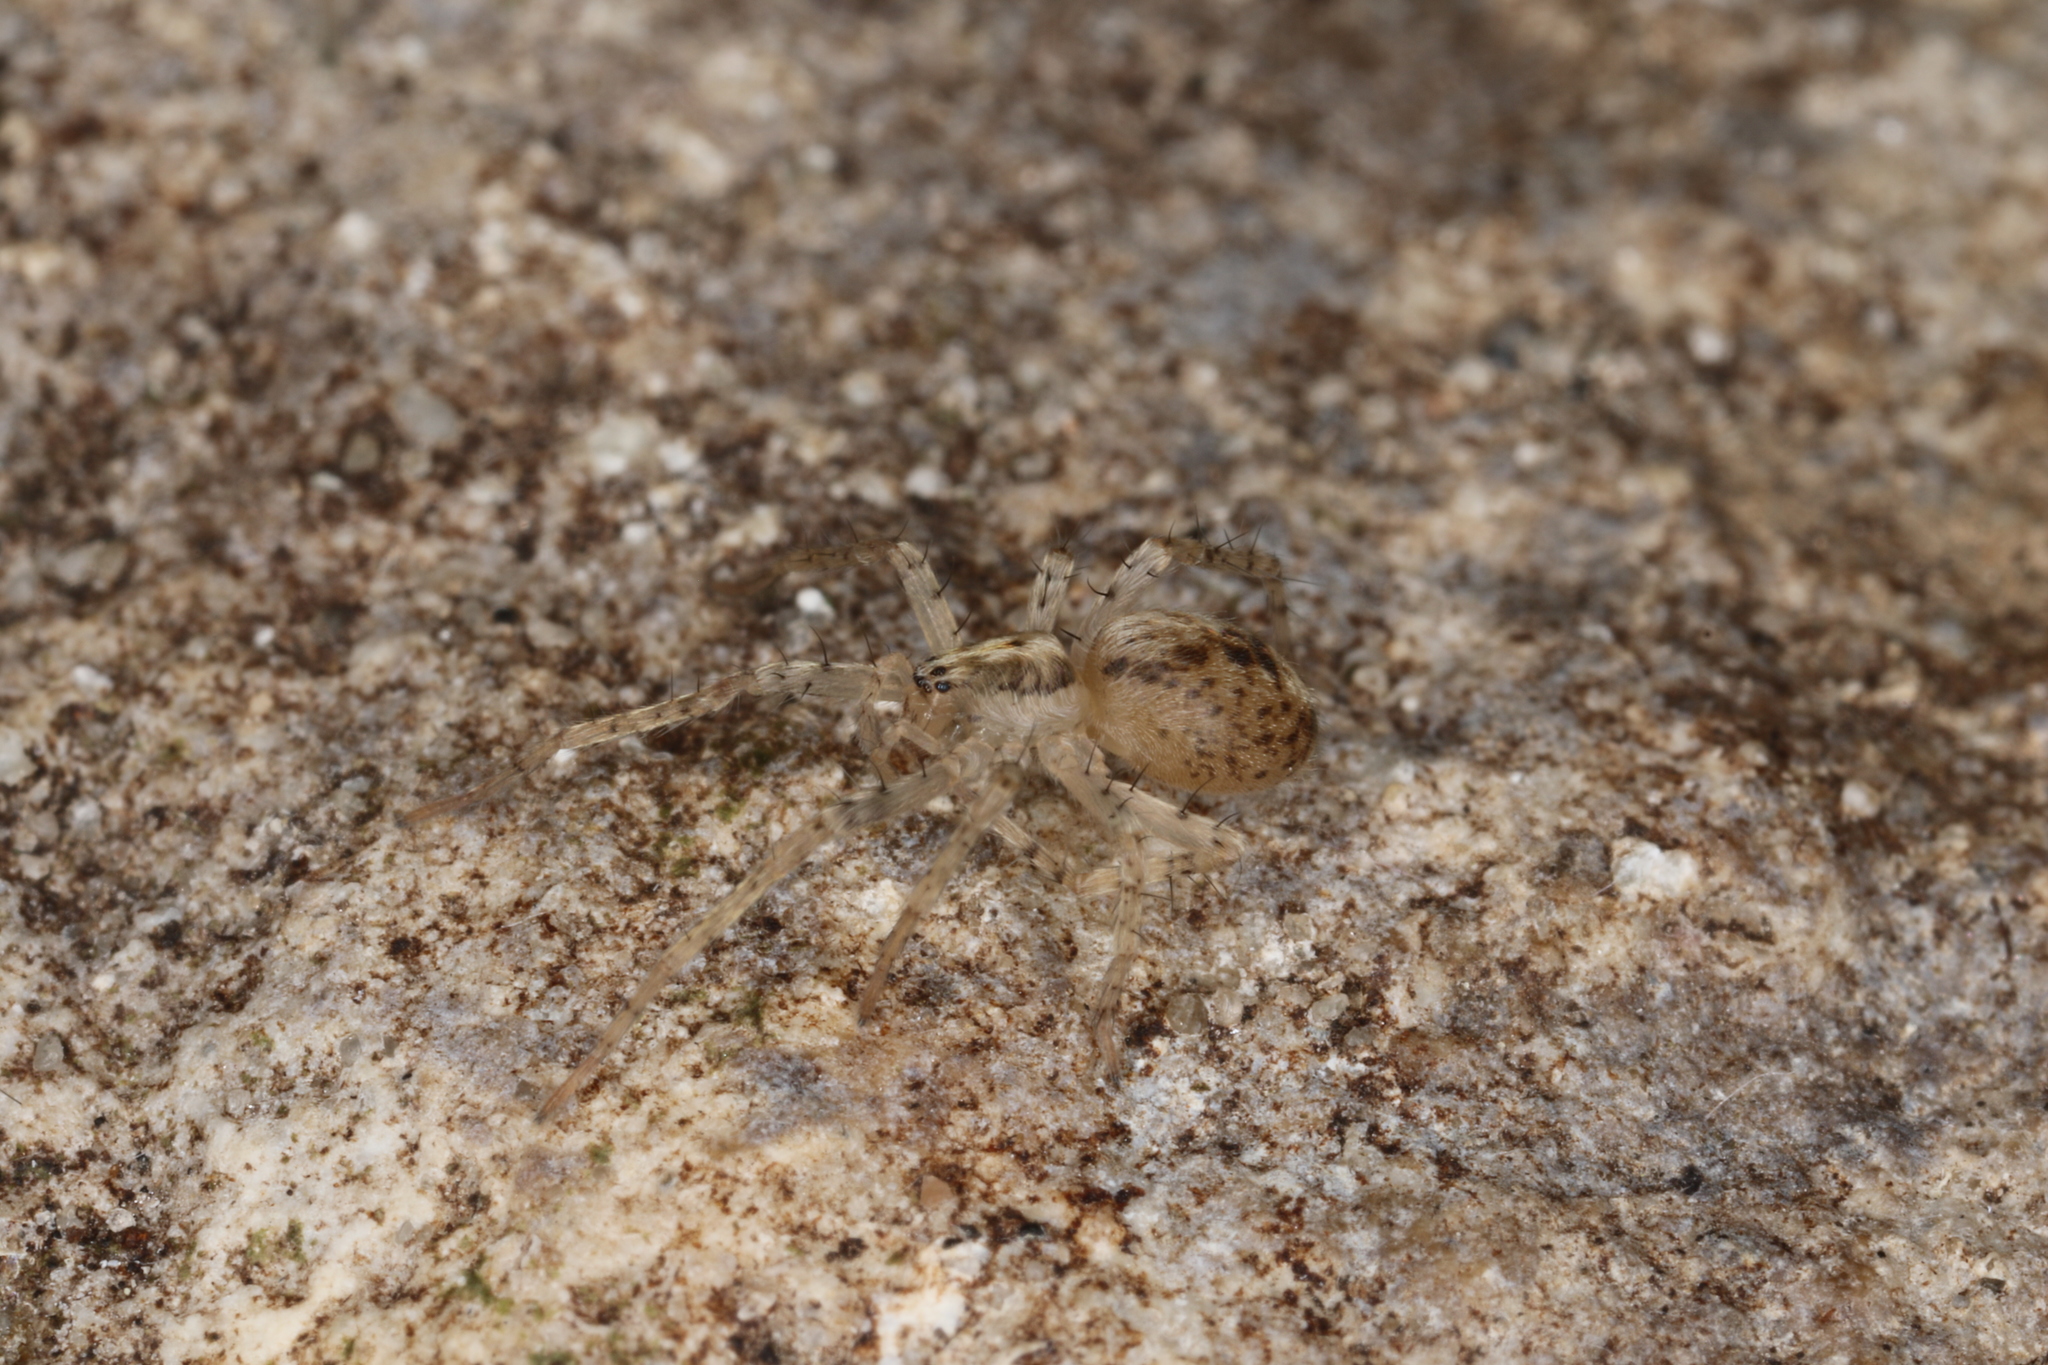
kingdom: Animalia
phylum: Arthropoda
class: Arachnida
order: Araneae
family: Anyphaenidae
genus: Anyphaena
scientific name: Anyphaena accentuata
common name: Buzzing spider
